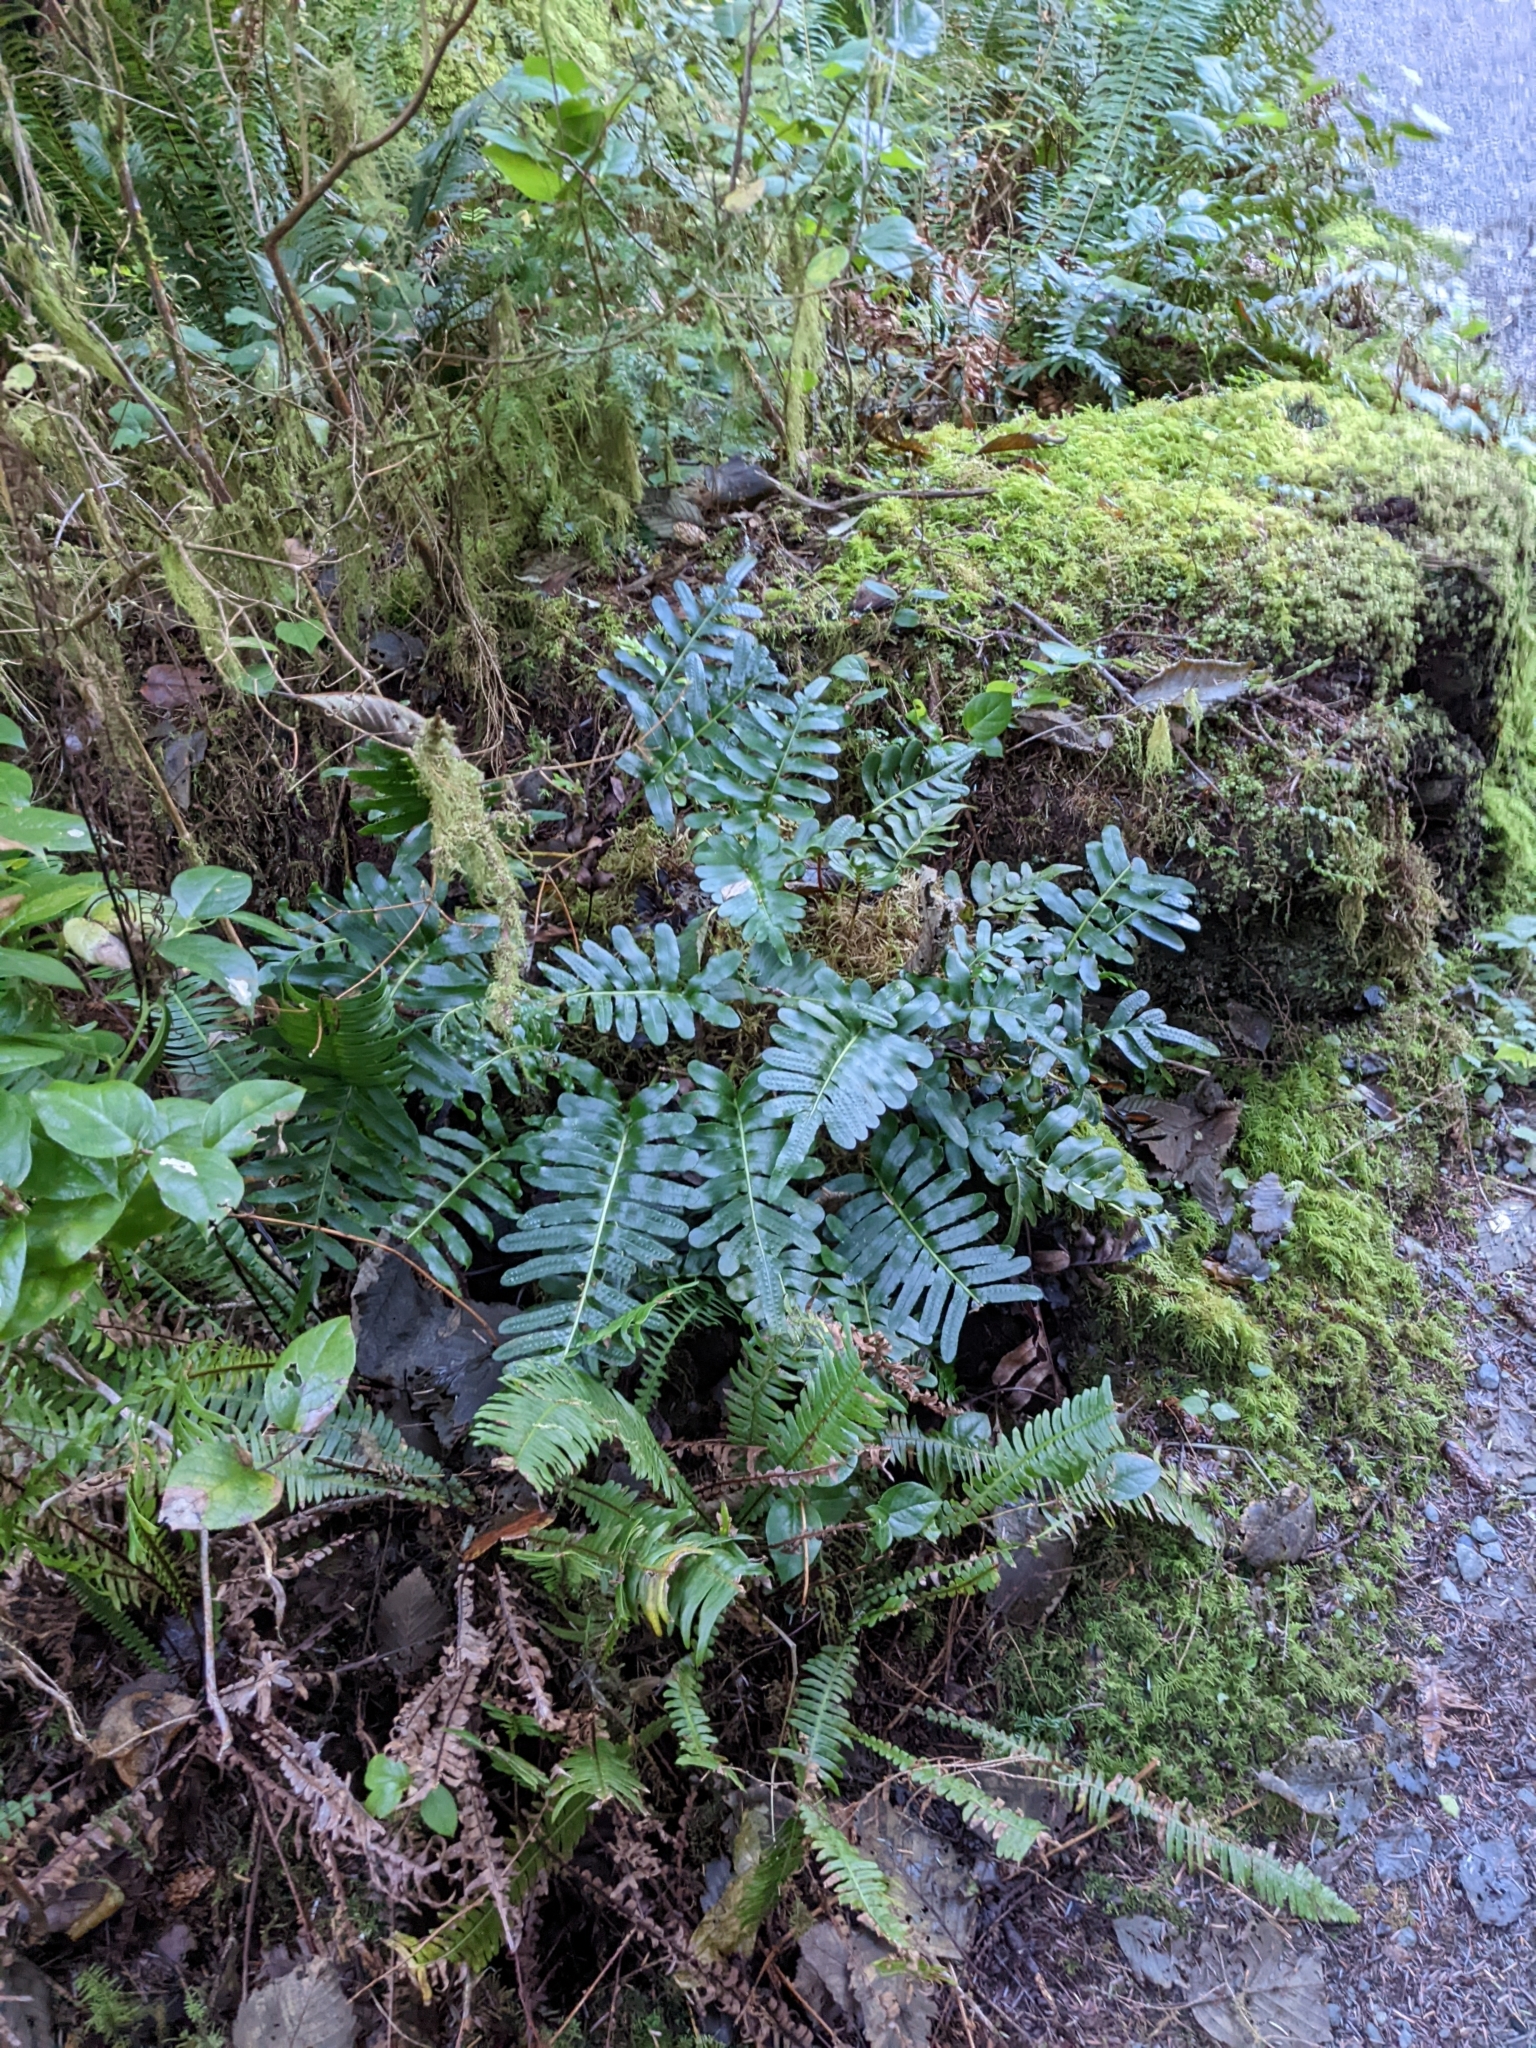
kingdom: Plantae
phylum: Tracheophyta
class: Polypodiopsida
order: Polypodiales
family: Polypodiaceae
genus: Polypodium
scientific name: Polypodium scouleri
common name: Scouler's polypody
